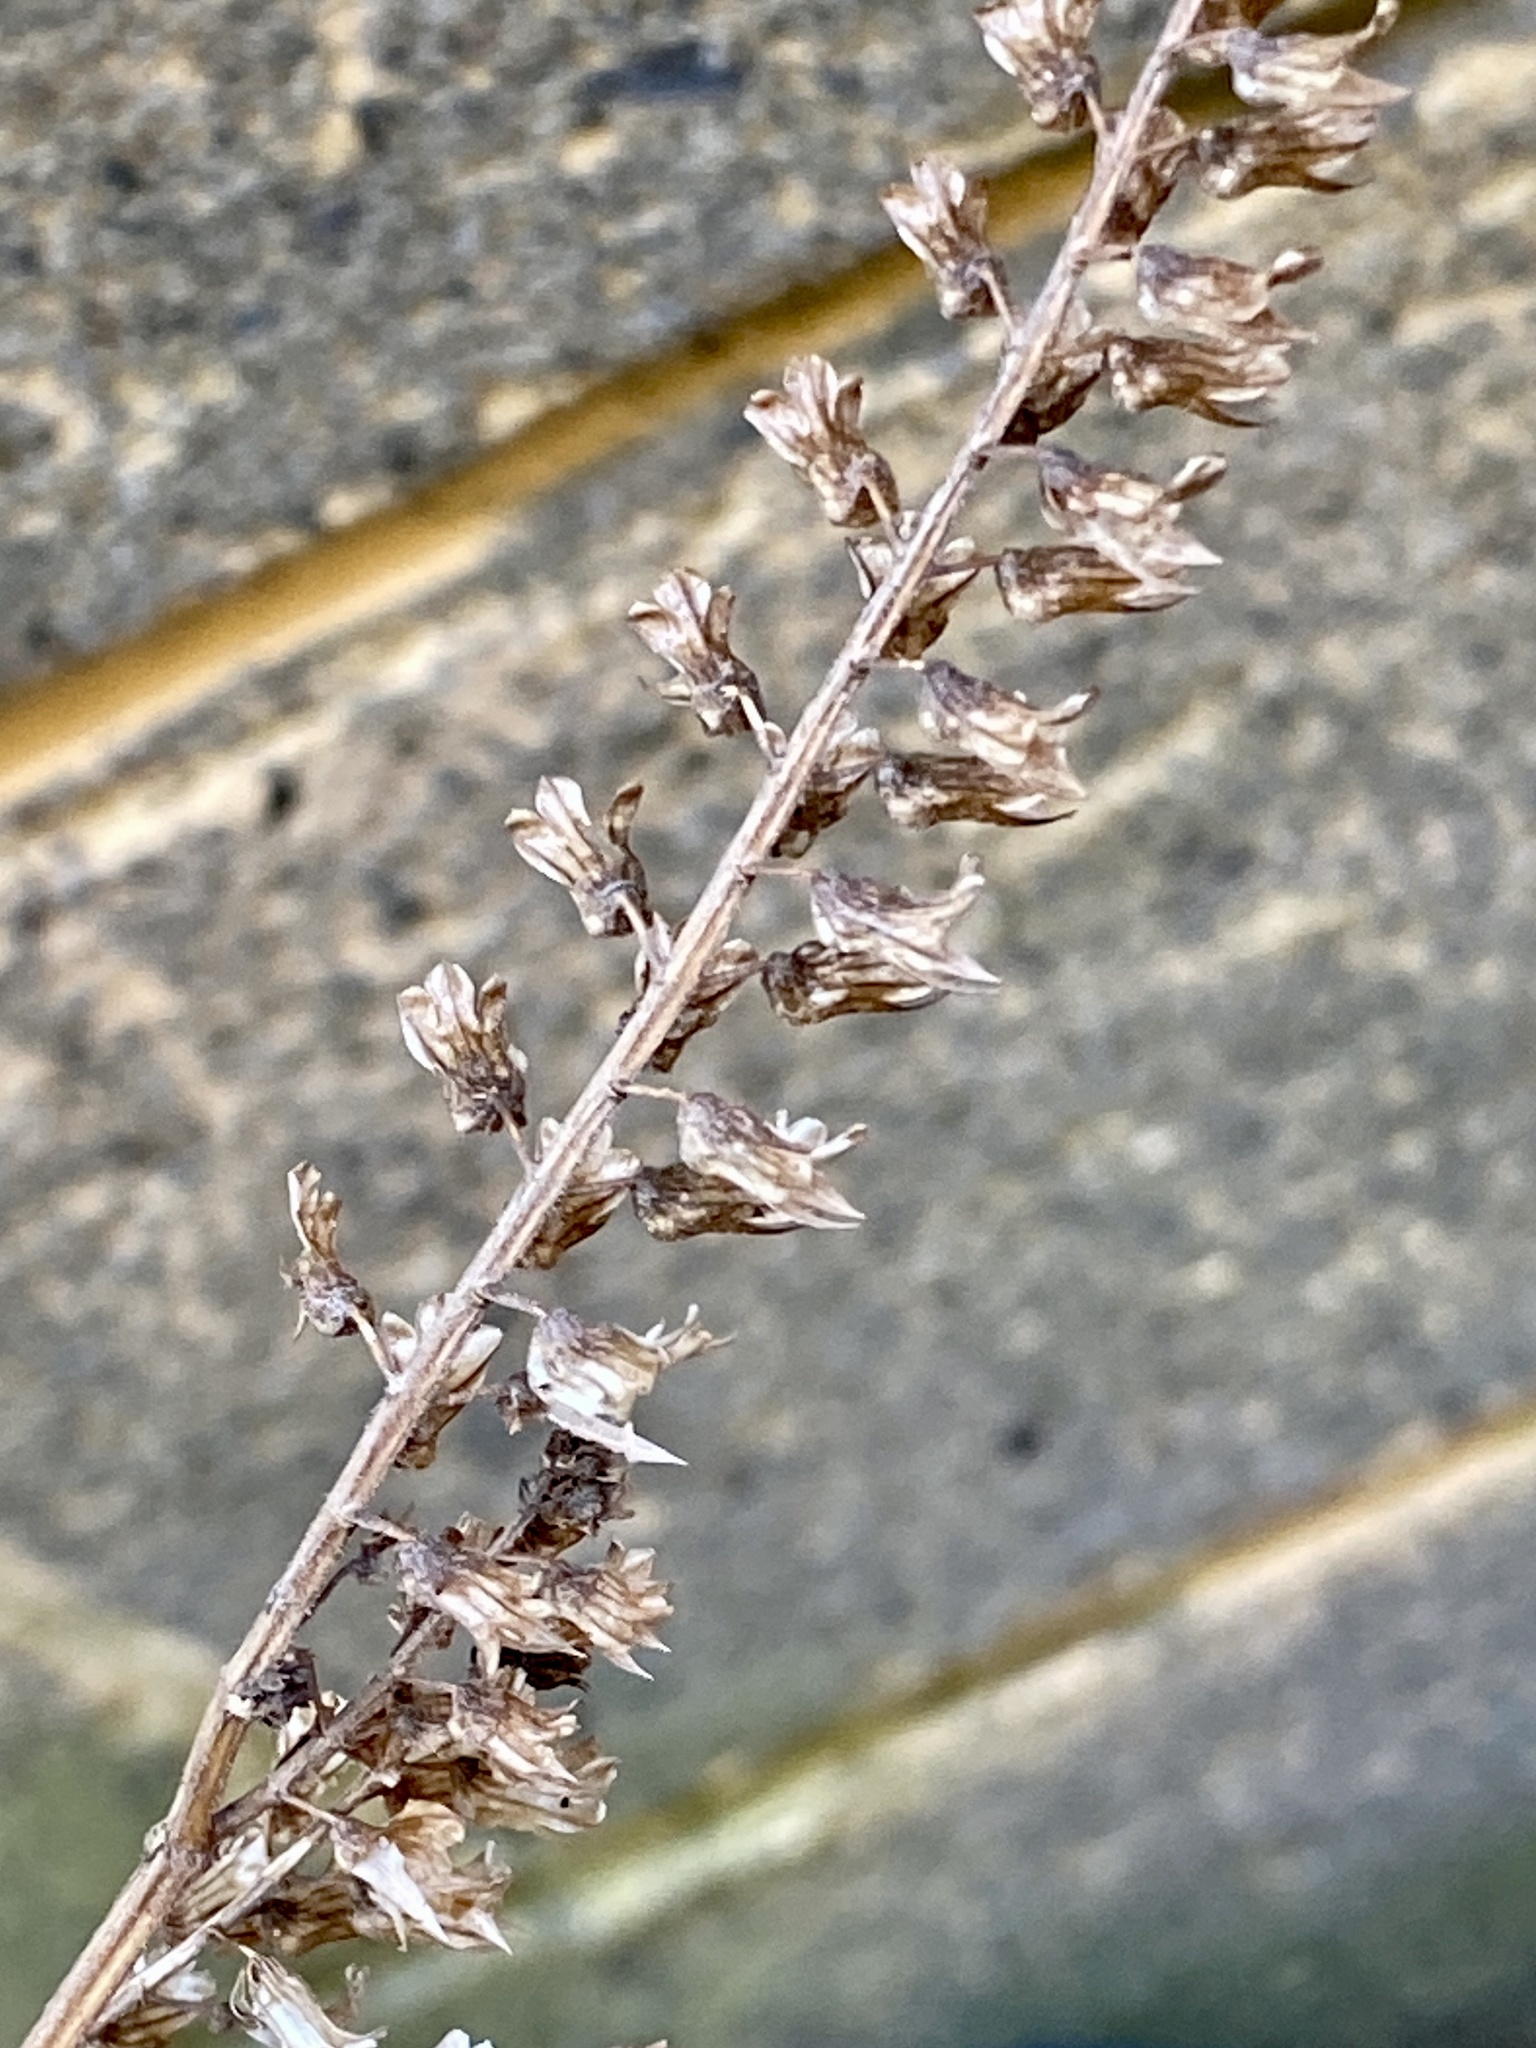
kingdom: Plantae
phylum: Tracheophyta
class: Magnoliopsida
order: Lamiales
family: Lamiaceae
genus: Perilla
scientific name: Perilla frutescens
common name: Perilla
